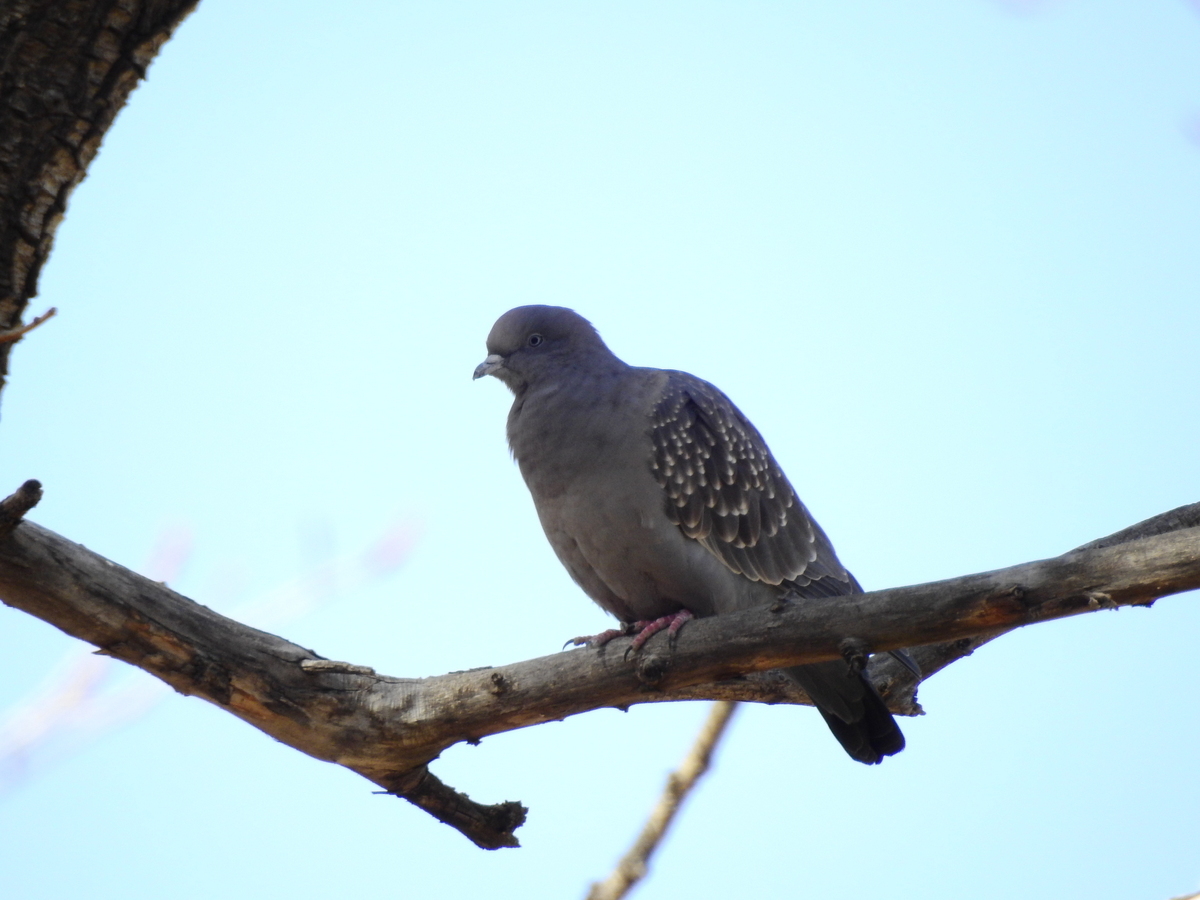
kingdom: Animalia
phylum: Chordata
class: Aves
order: Columbiformes
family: Columbidae
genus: Patagioenas
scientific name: Patagioenas maculosa
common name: Spot-winged pigeon
